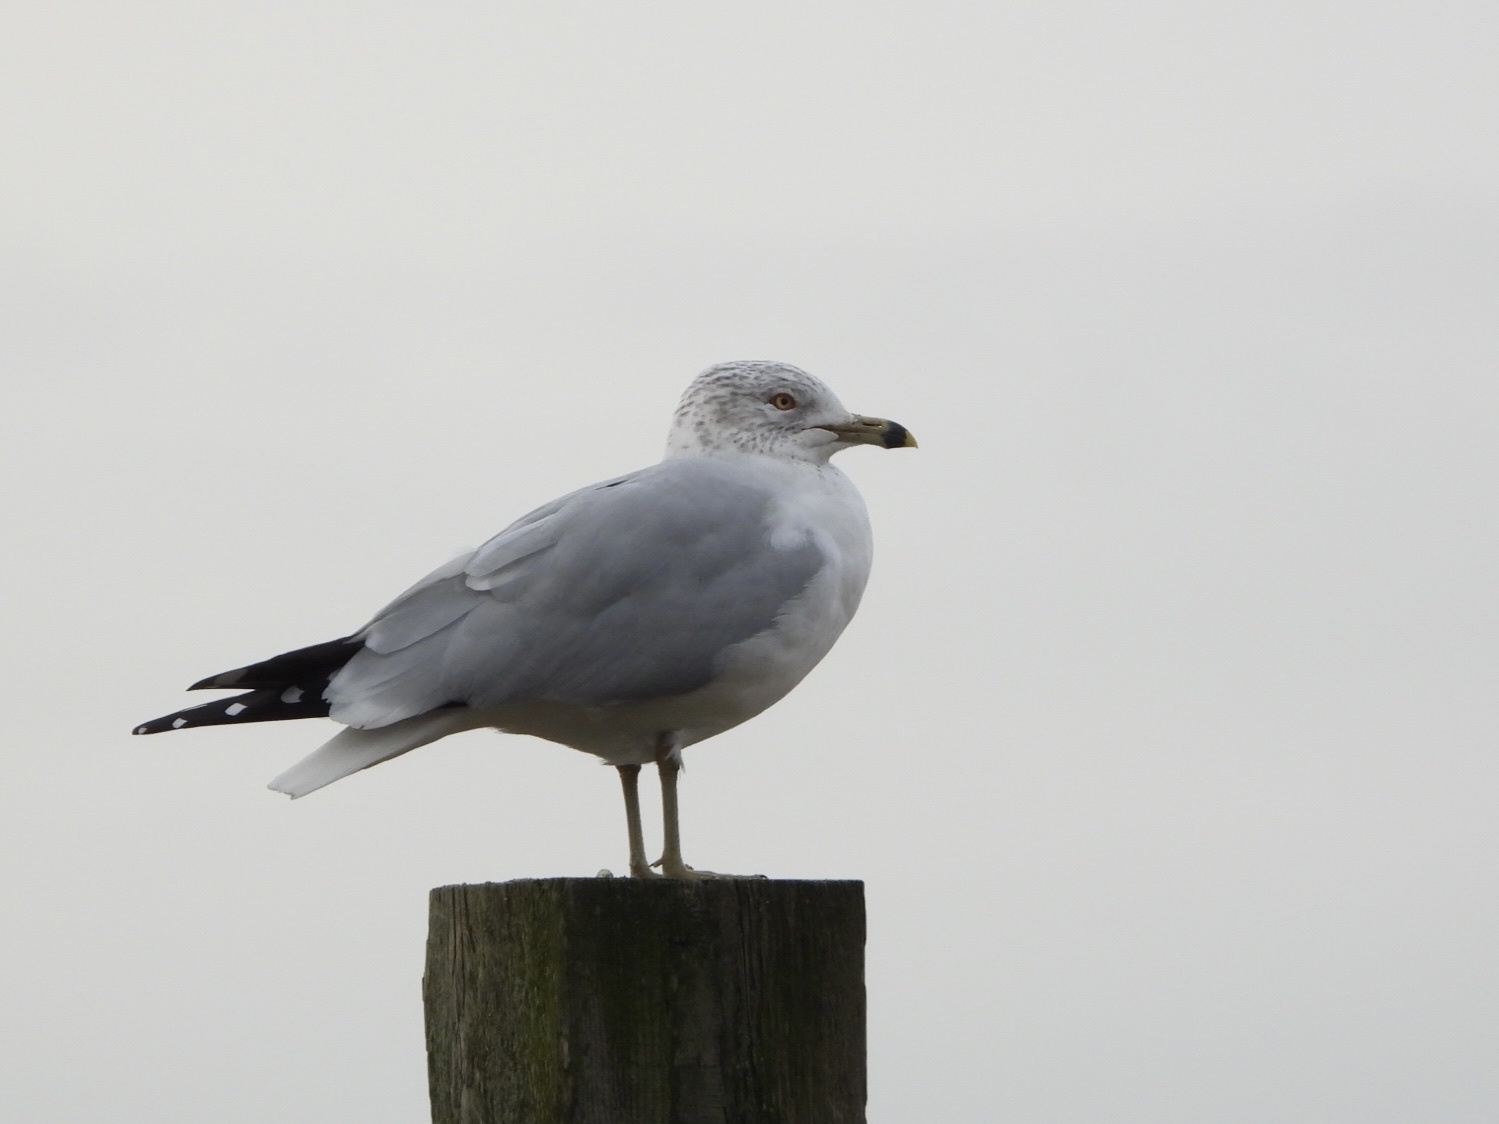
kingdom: Animalia
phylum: Chordata
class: Aves
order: Charadriiformes
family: Laridae
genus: Larus
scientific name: Larus delawarensis
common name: Ring-billed gull
